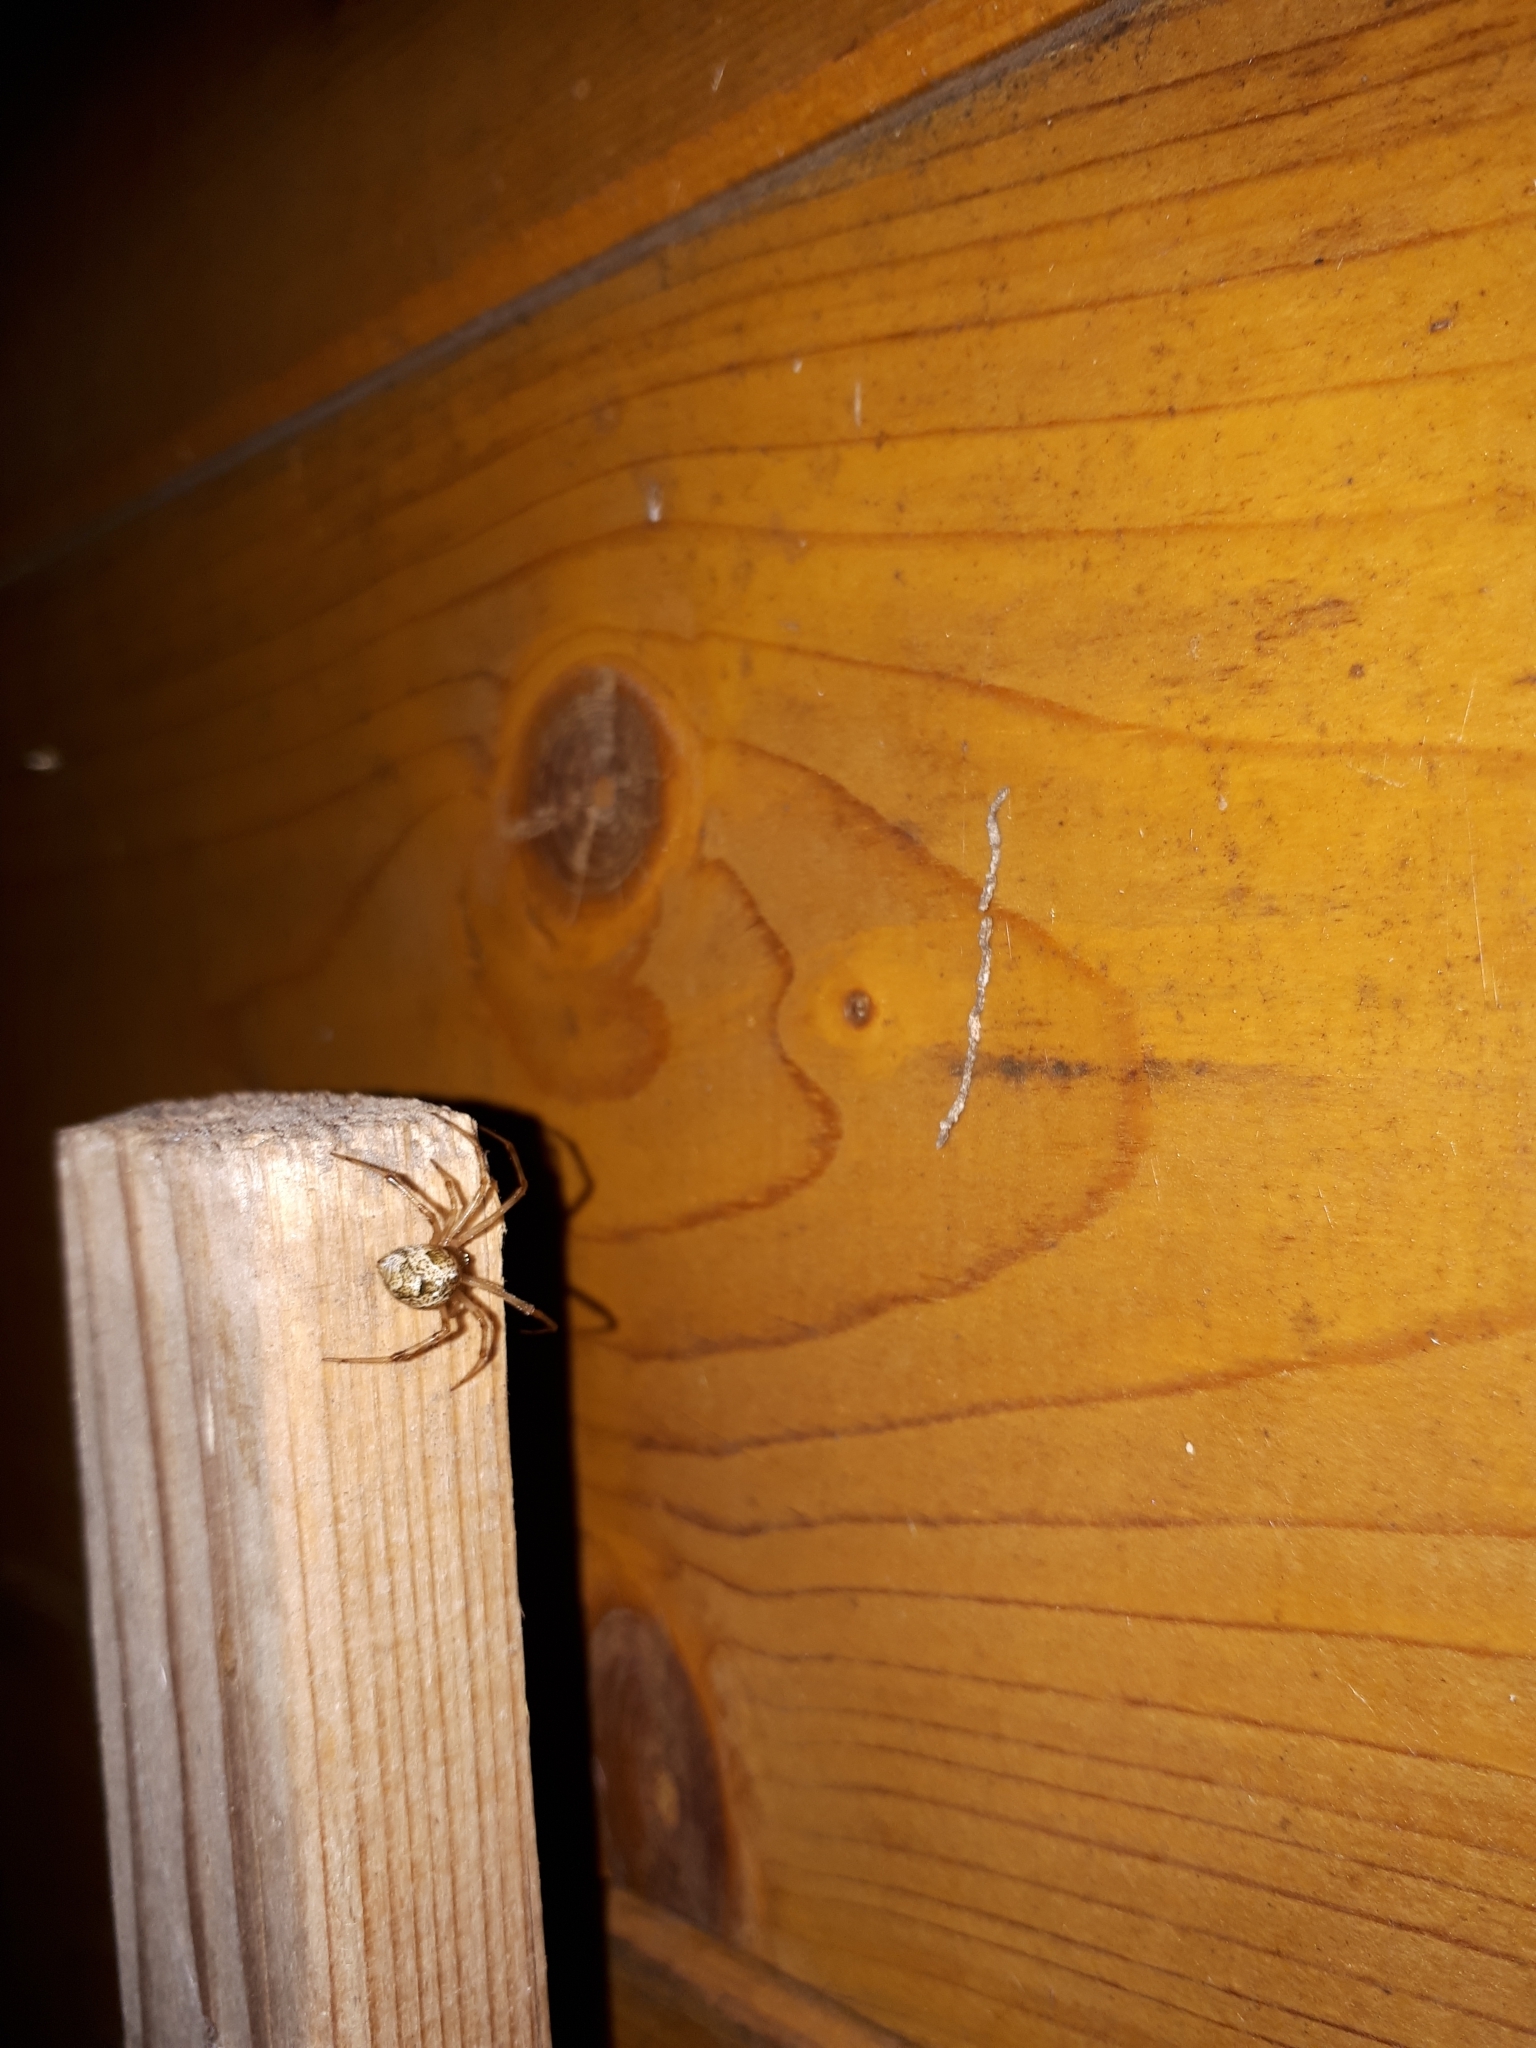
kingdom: Animalia
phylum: Arthropoda
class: Arachnida
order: Araneae
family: Theridiidae
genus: Parasteatoda
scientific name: Parasteatoda tepidariorum
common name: Common house spider
